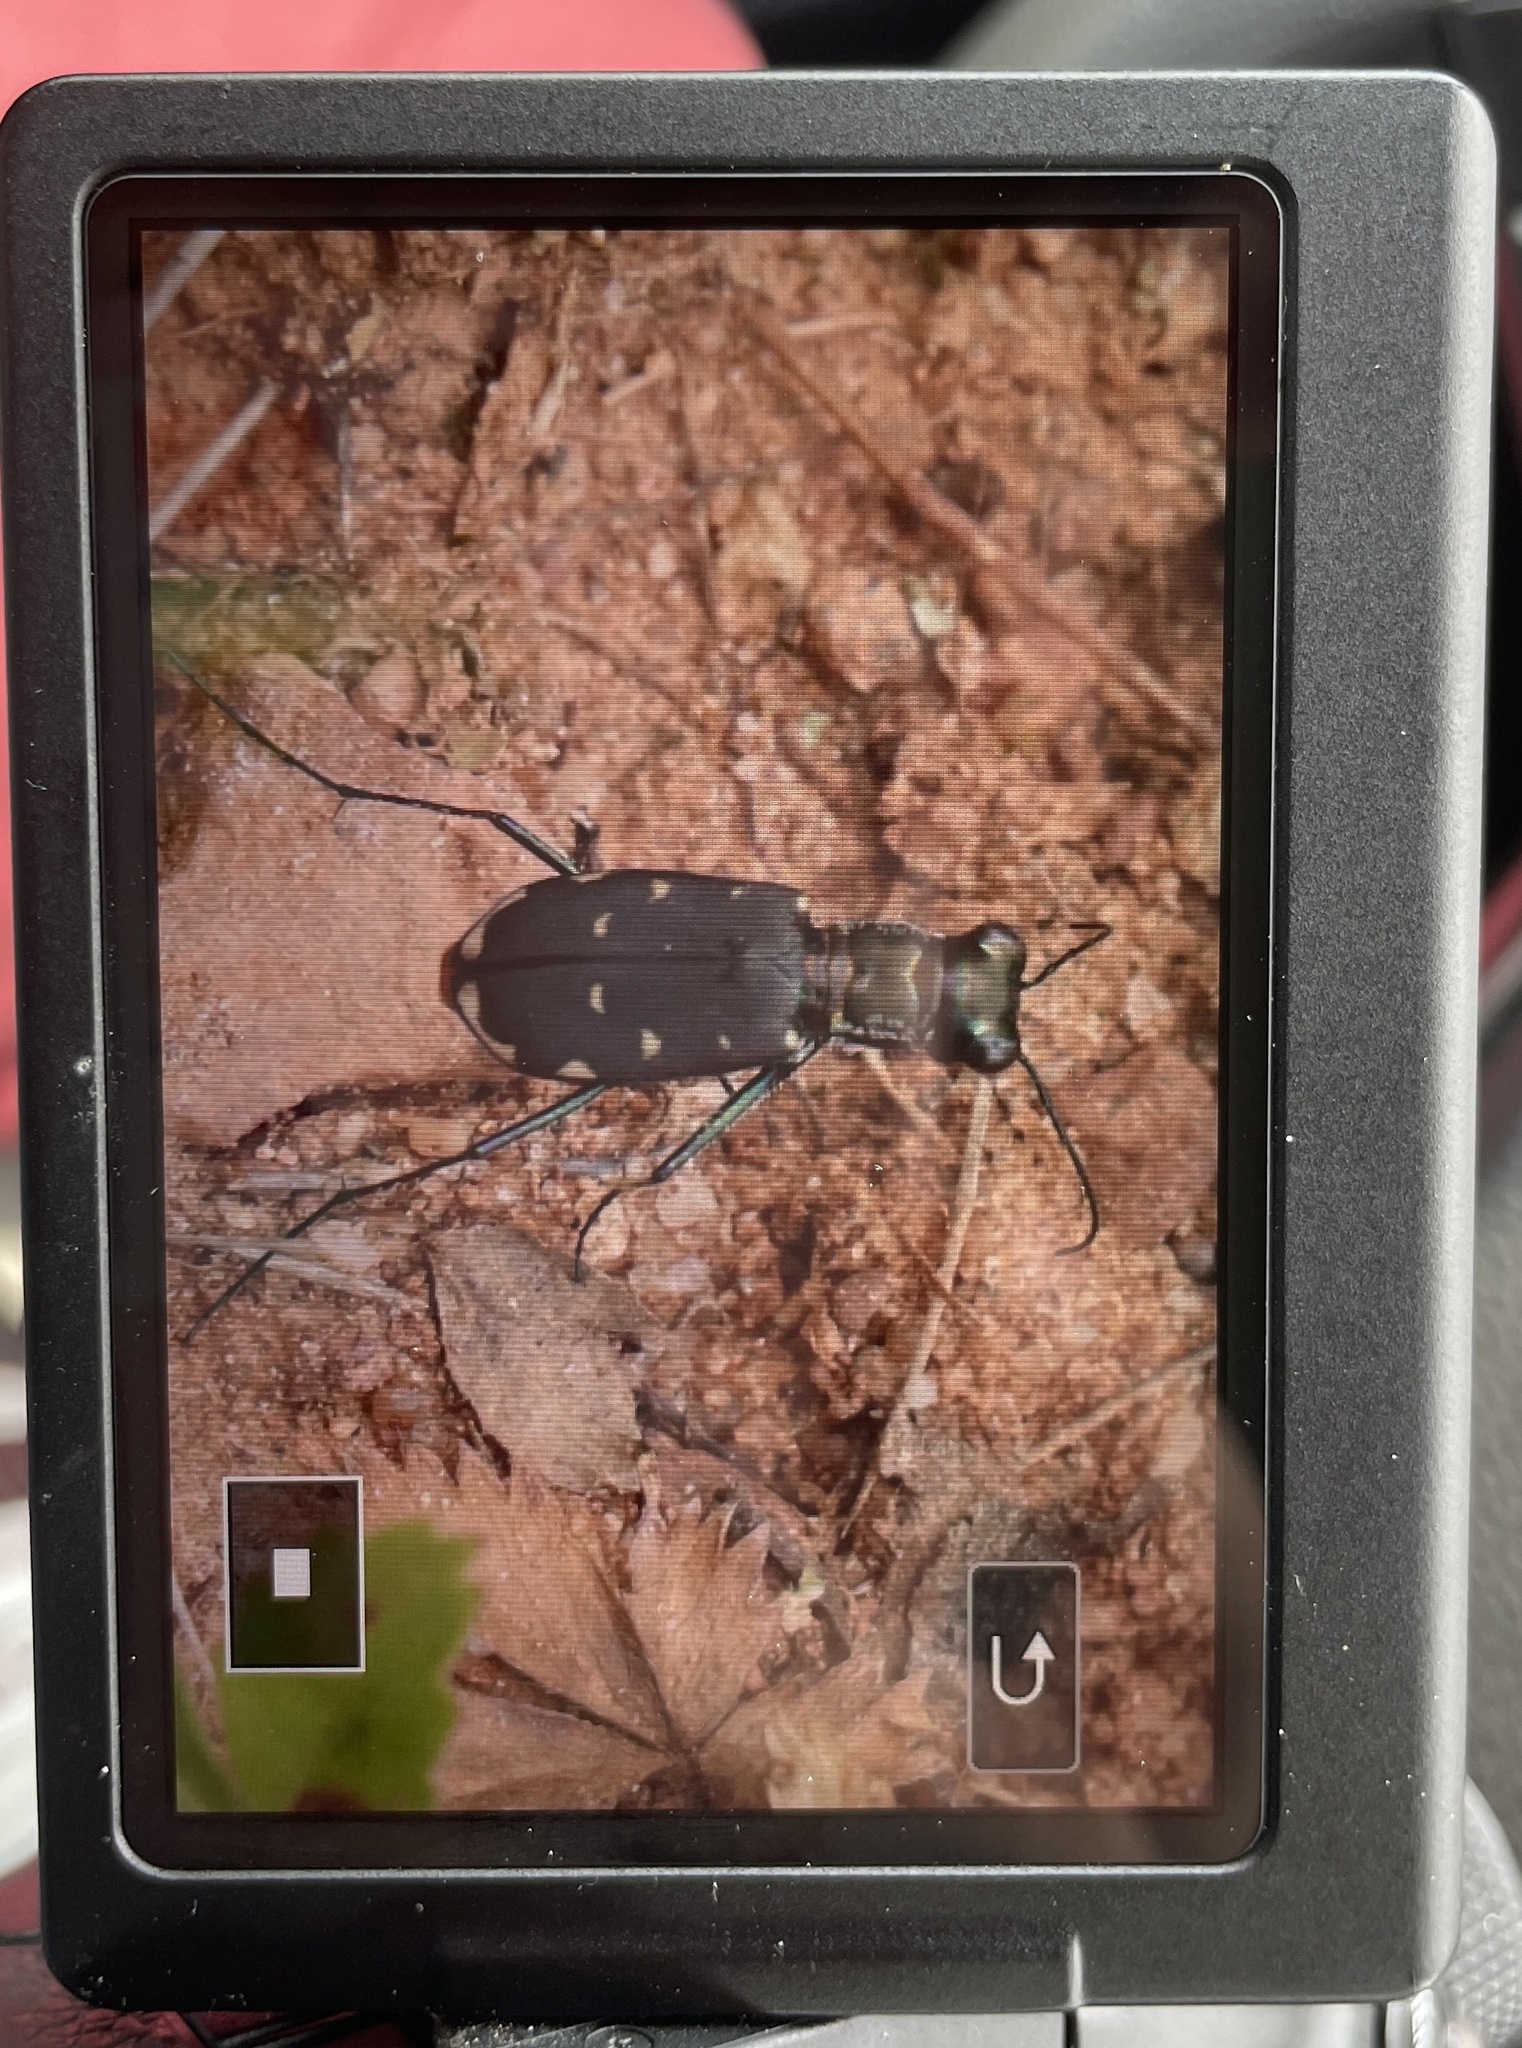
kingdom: Animalia
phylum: Arthropoda
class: Insecta
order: Coleoptera
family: Carabidae
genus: Cicindela
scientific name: Cicindela rufiventris
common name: Eastern red-bellied tiger beetle
